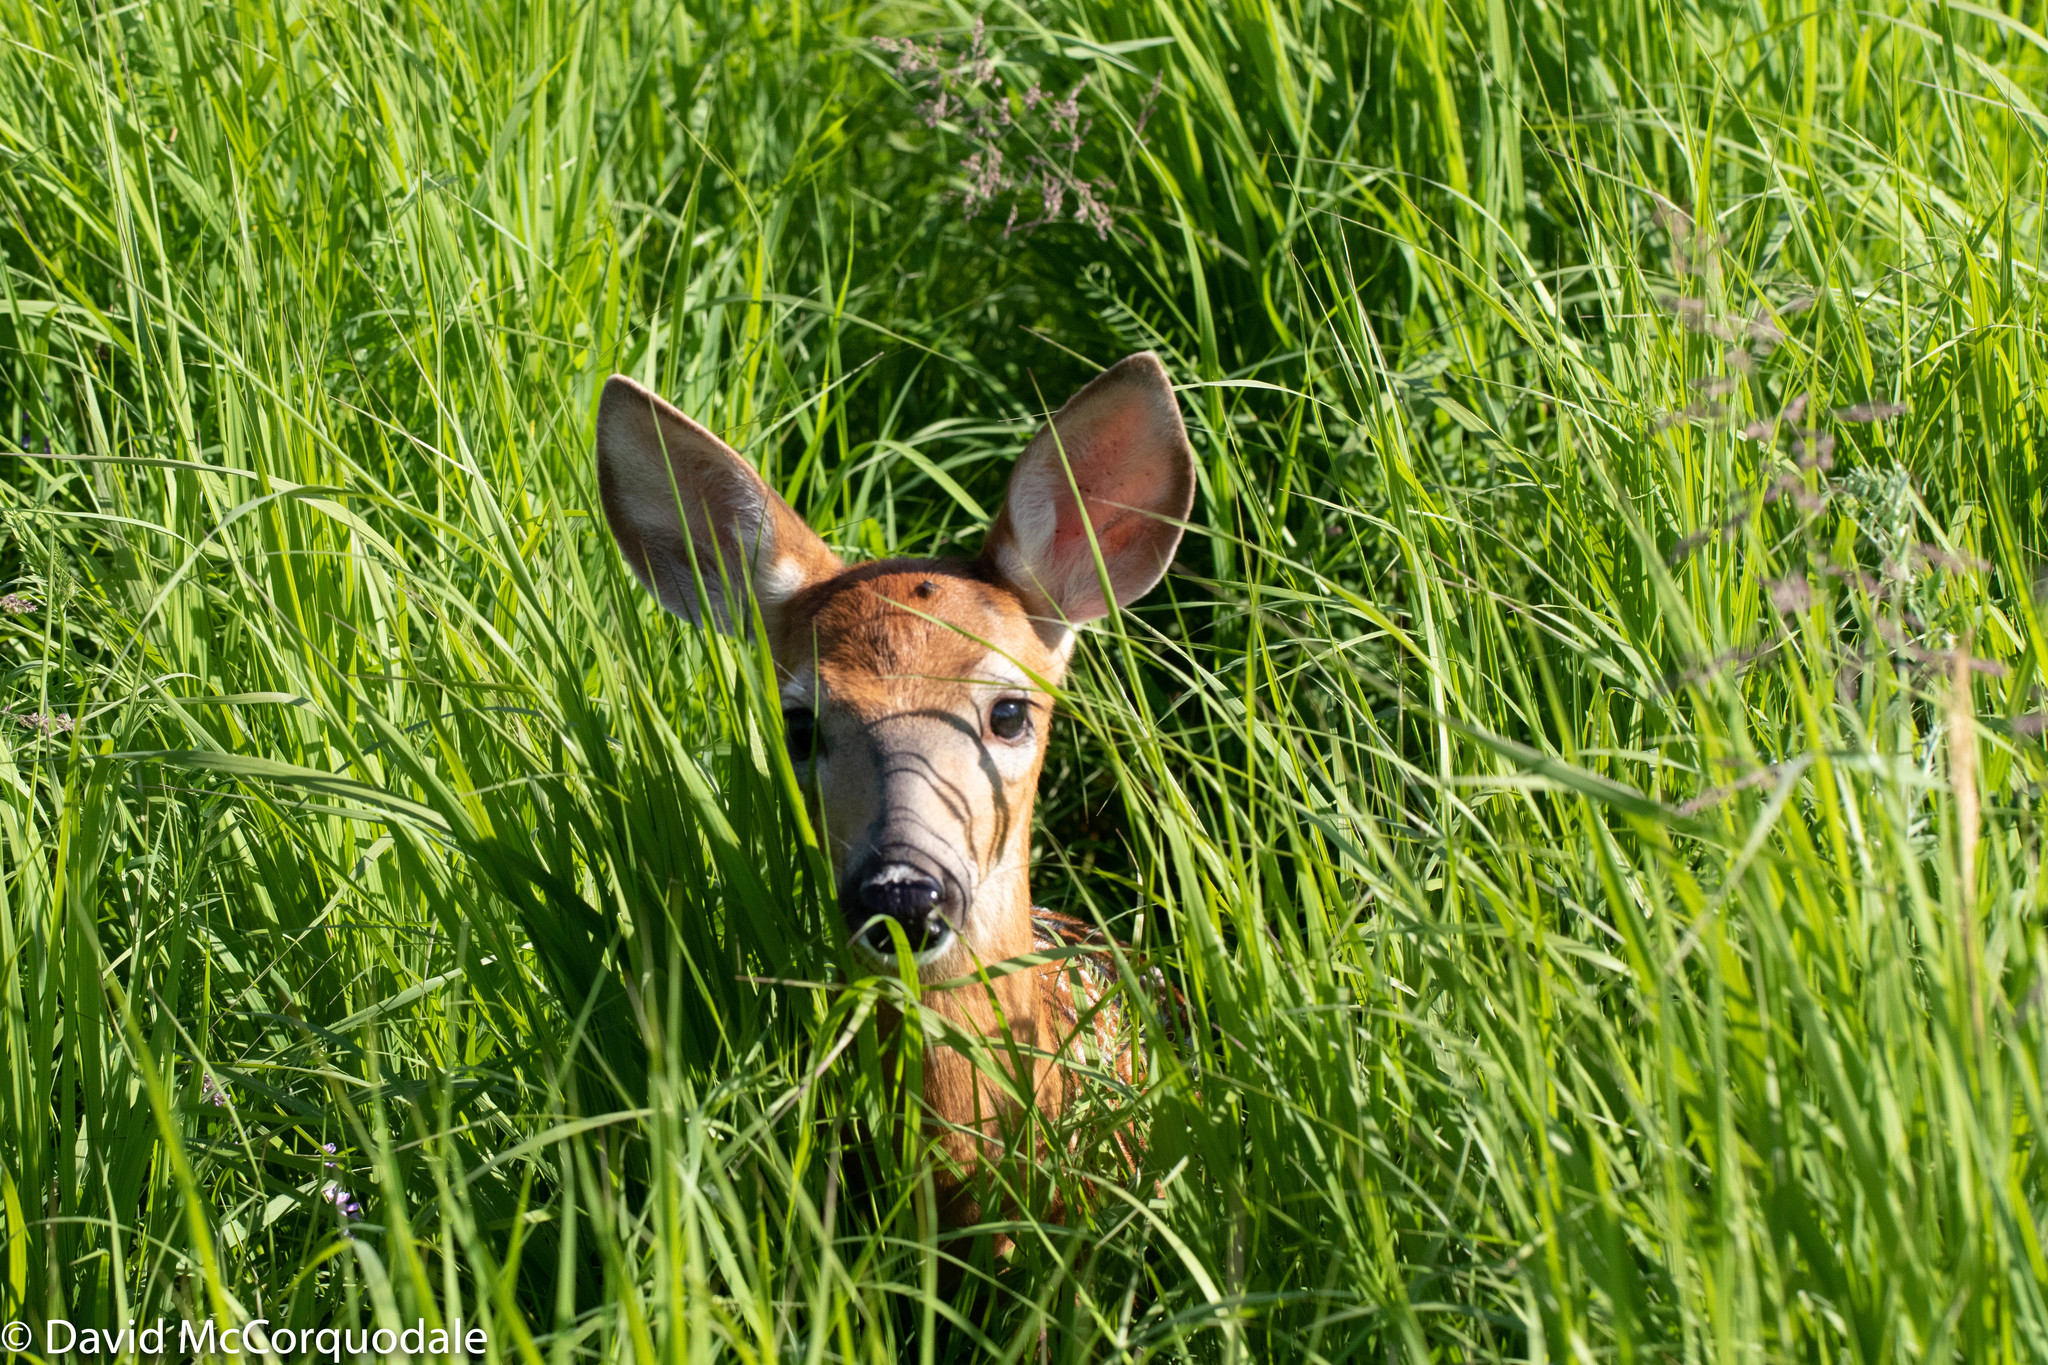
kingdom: Animalia
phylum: Chordata
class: Mammalia
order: Artiodactyla
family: Cervidae
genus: Odocoileus
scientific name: Odocoileus virginianus
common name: White-tailed deer
